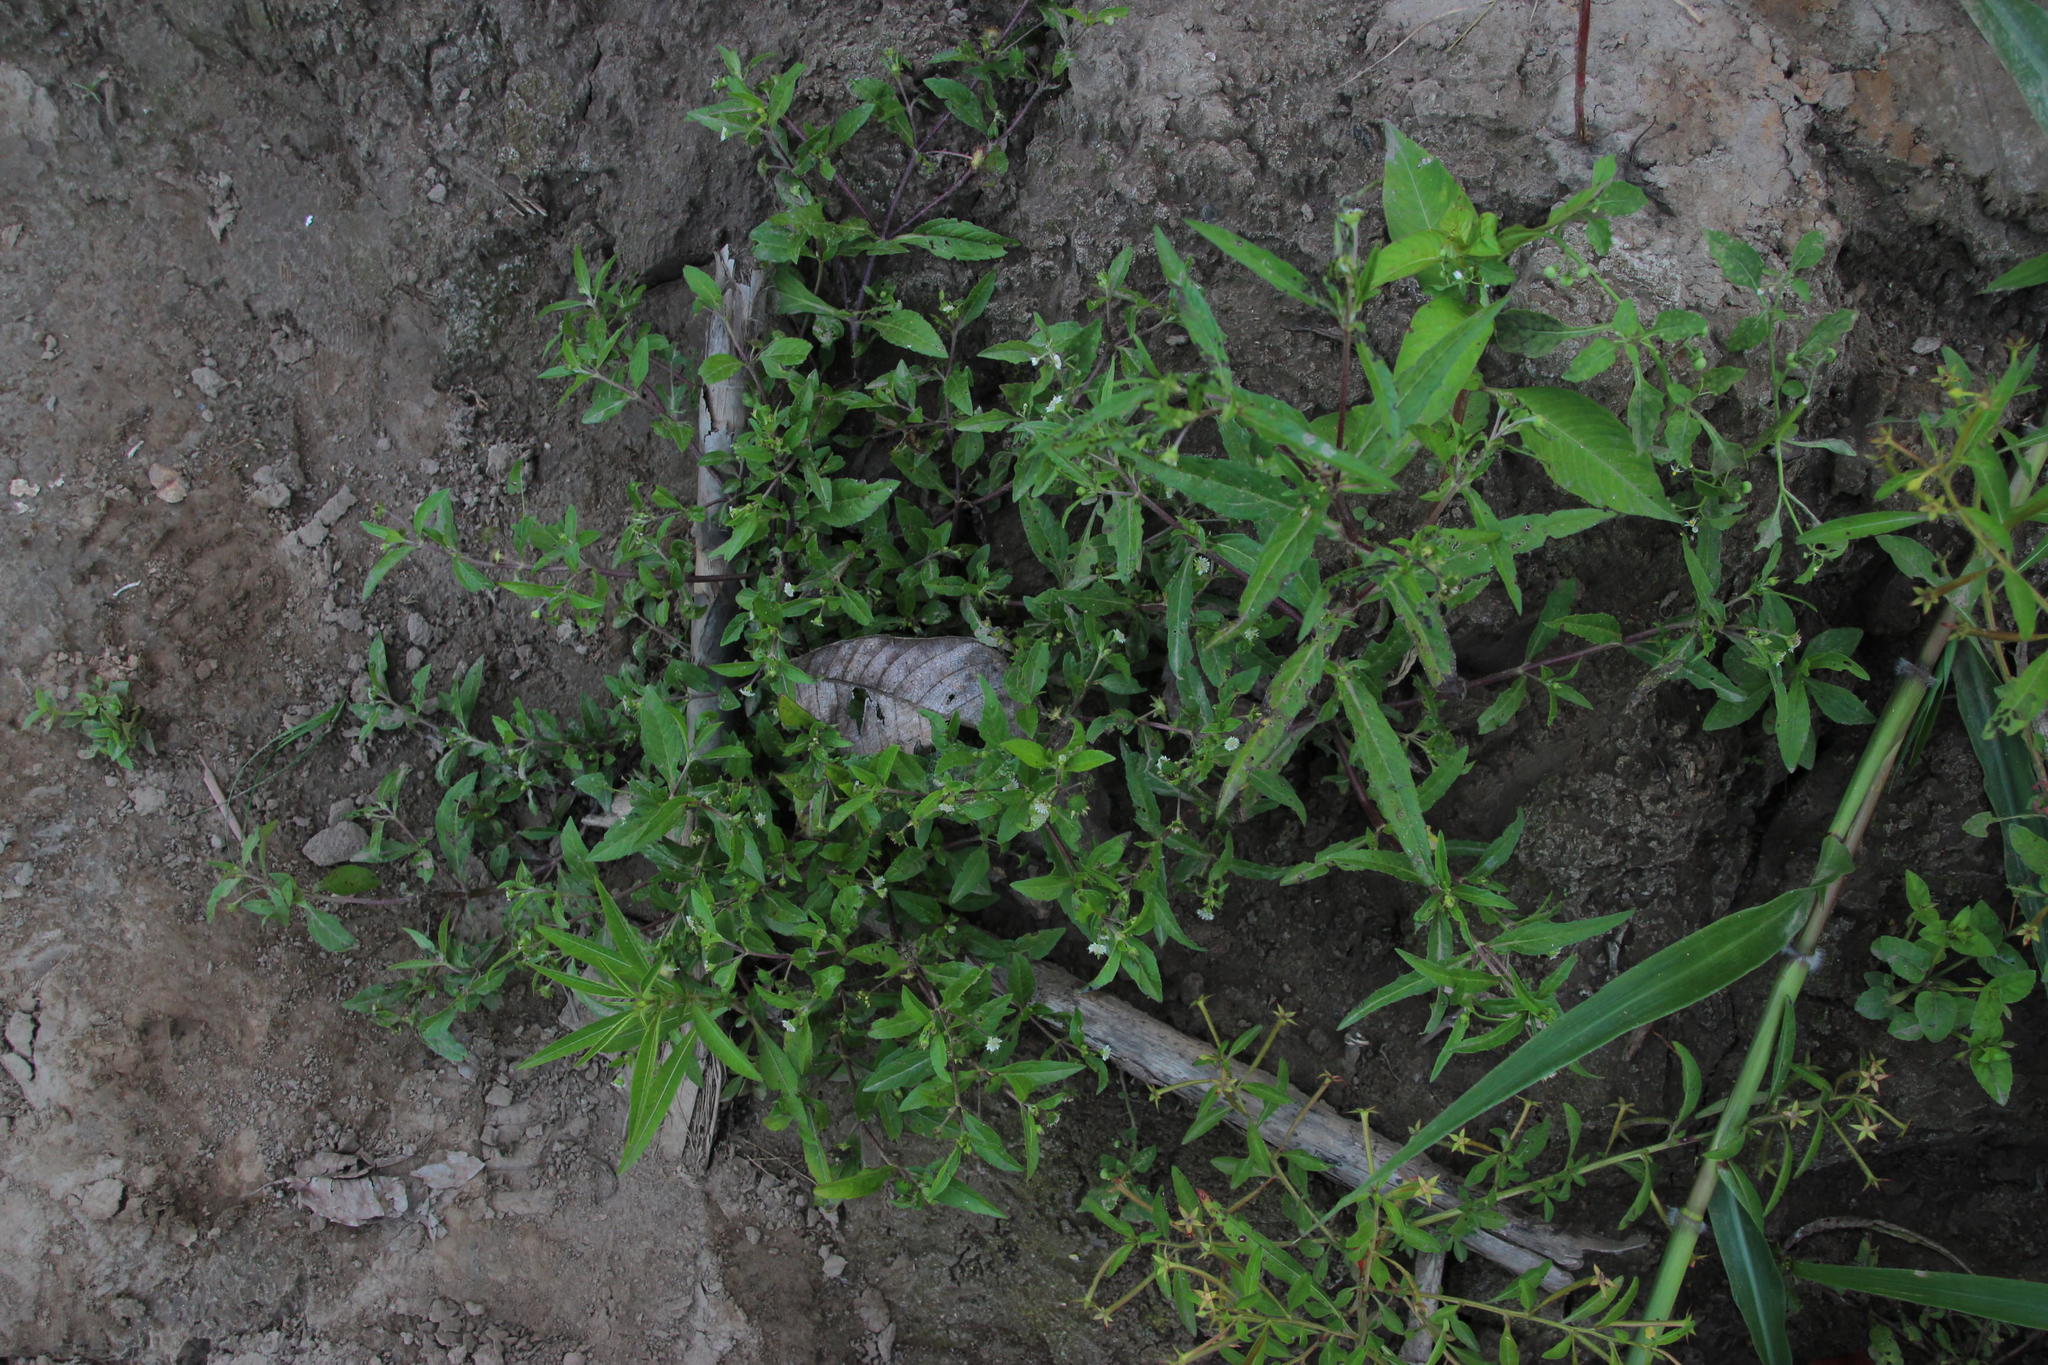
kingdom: Plantae
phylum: Tracheophyta
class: Magnoliopsida
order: Asterales
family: Asteraceae
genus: Eclipta
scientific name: Eclipta prostrata
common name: False daisy
